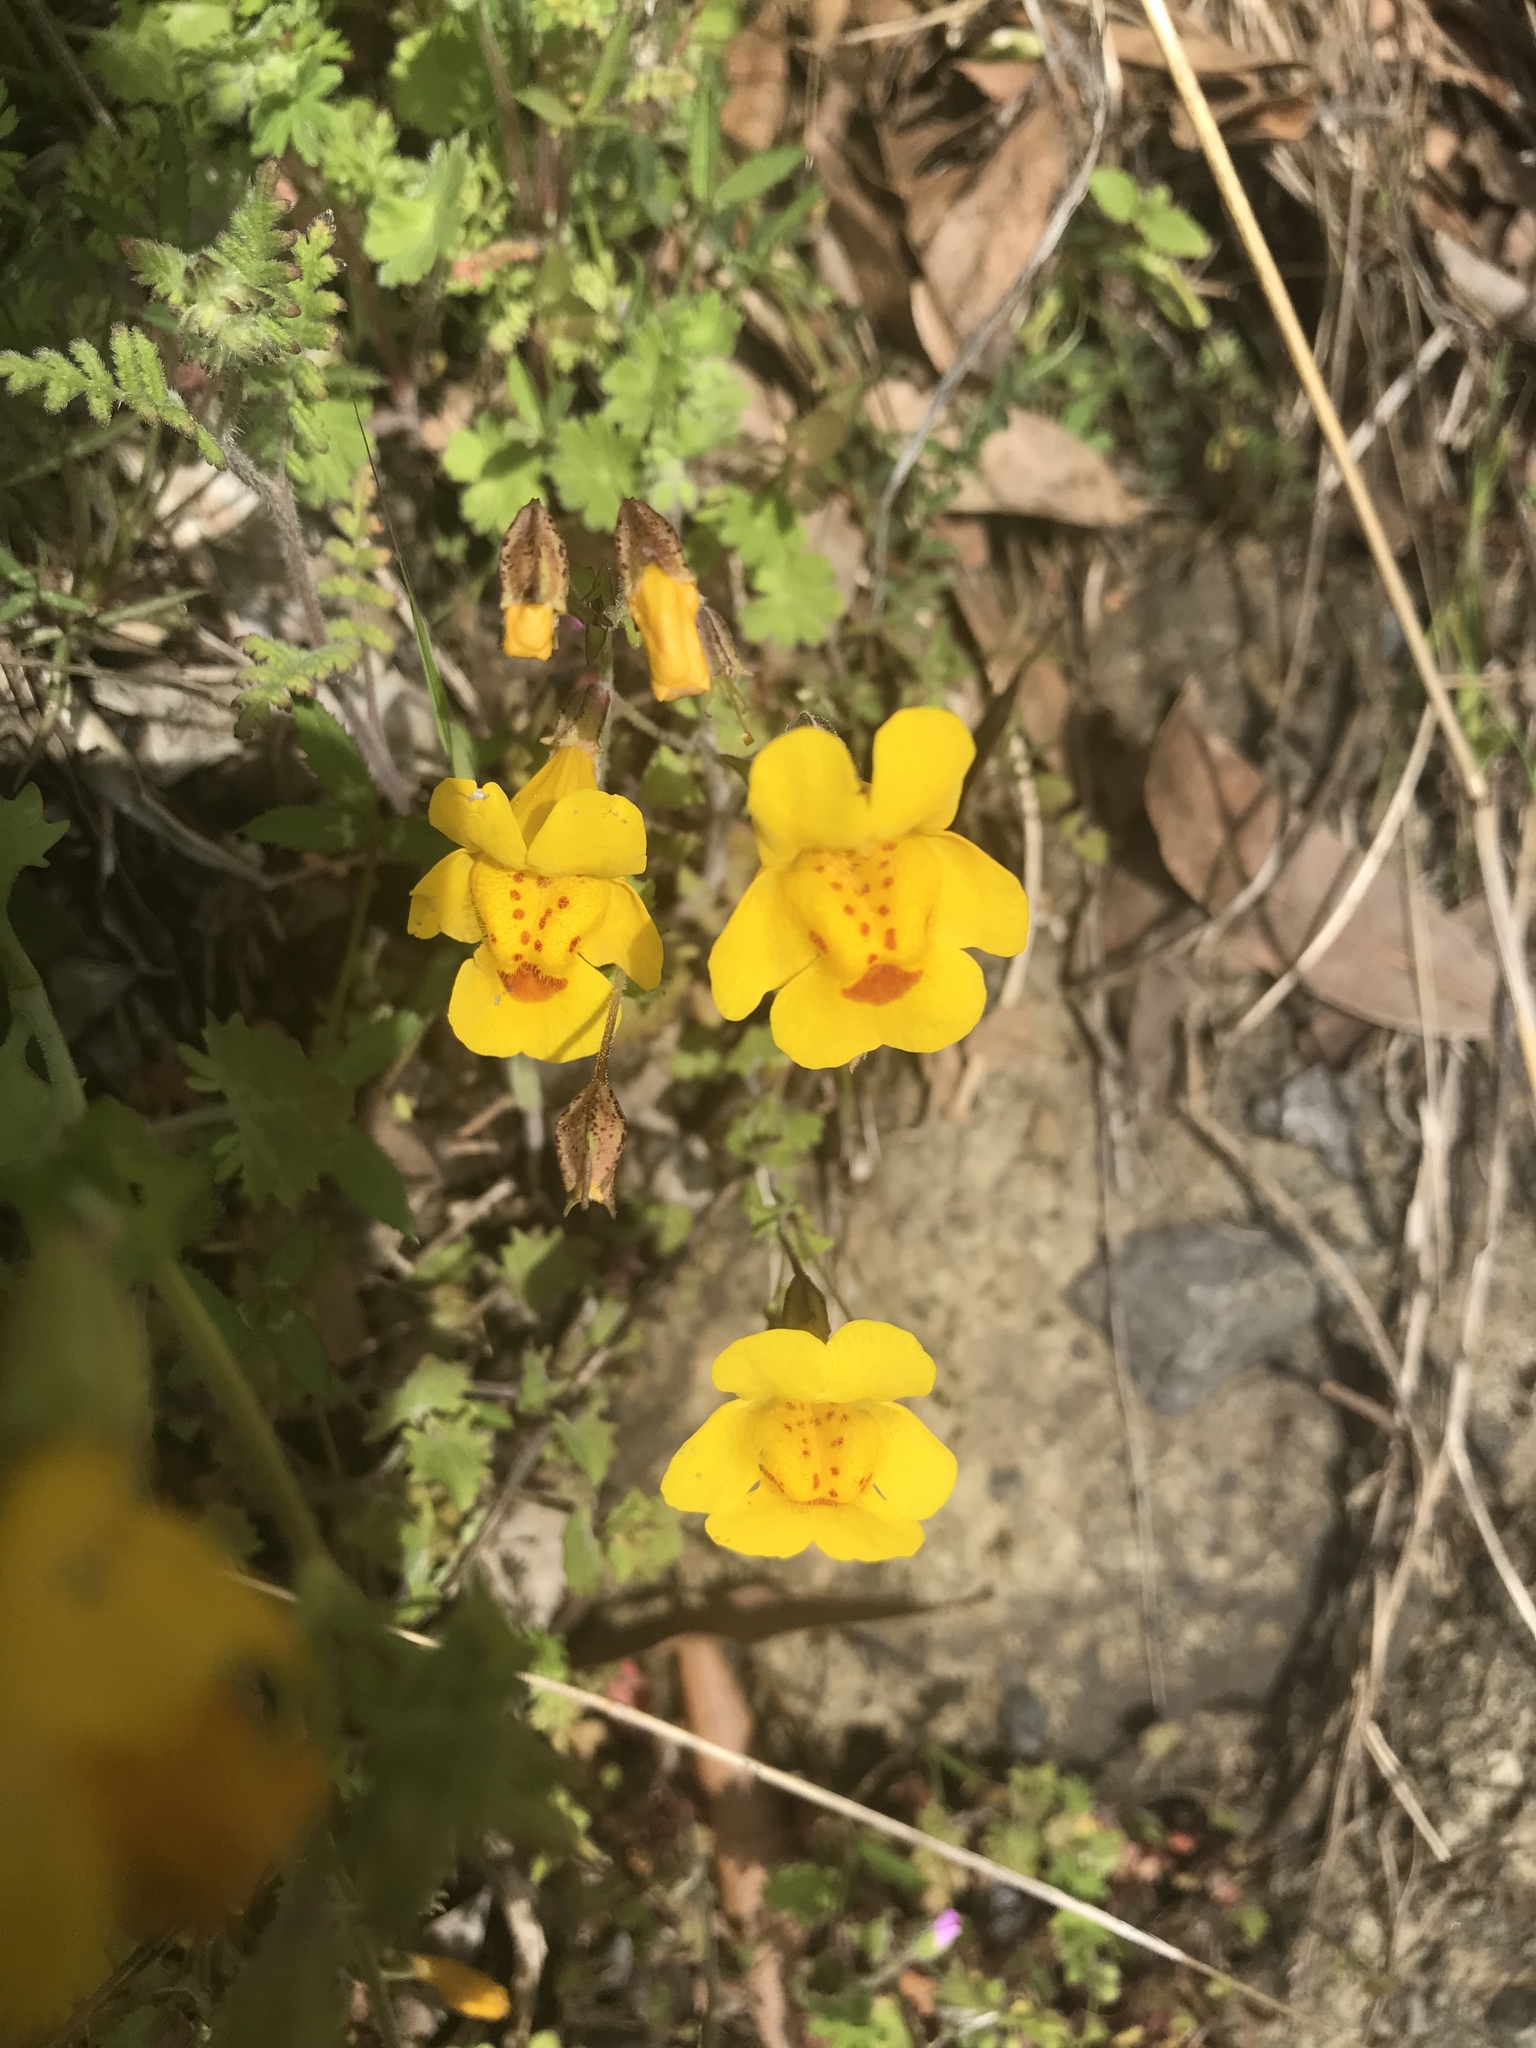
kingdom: Plantae
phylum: Tracheophyta
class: Magnoliopsida
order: Lamiales
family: Phrymaceae
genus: Erythranthe
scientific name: Erythranthe guttata
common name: Monkeyflower
